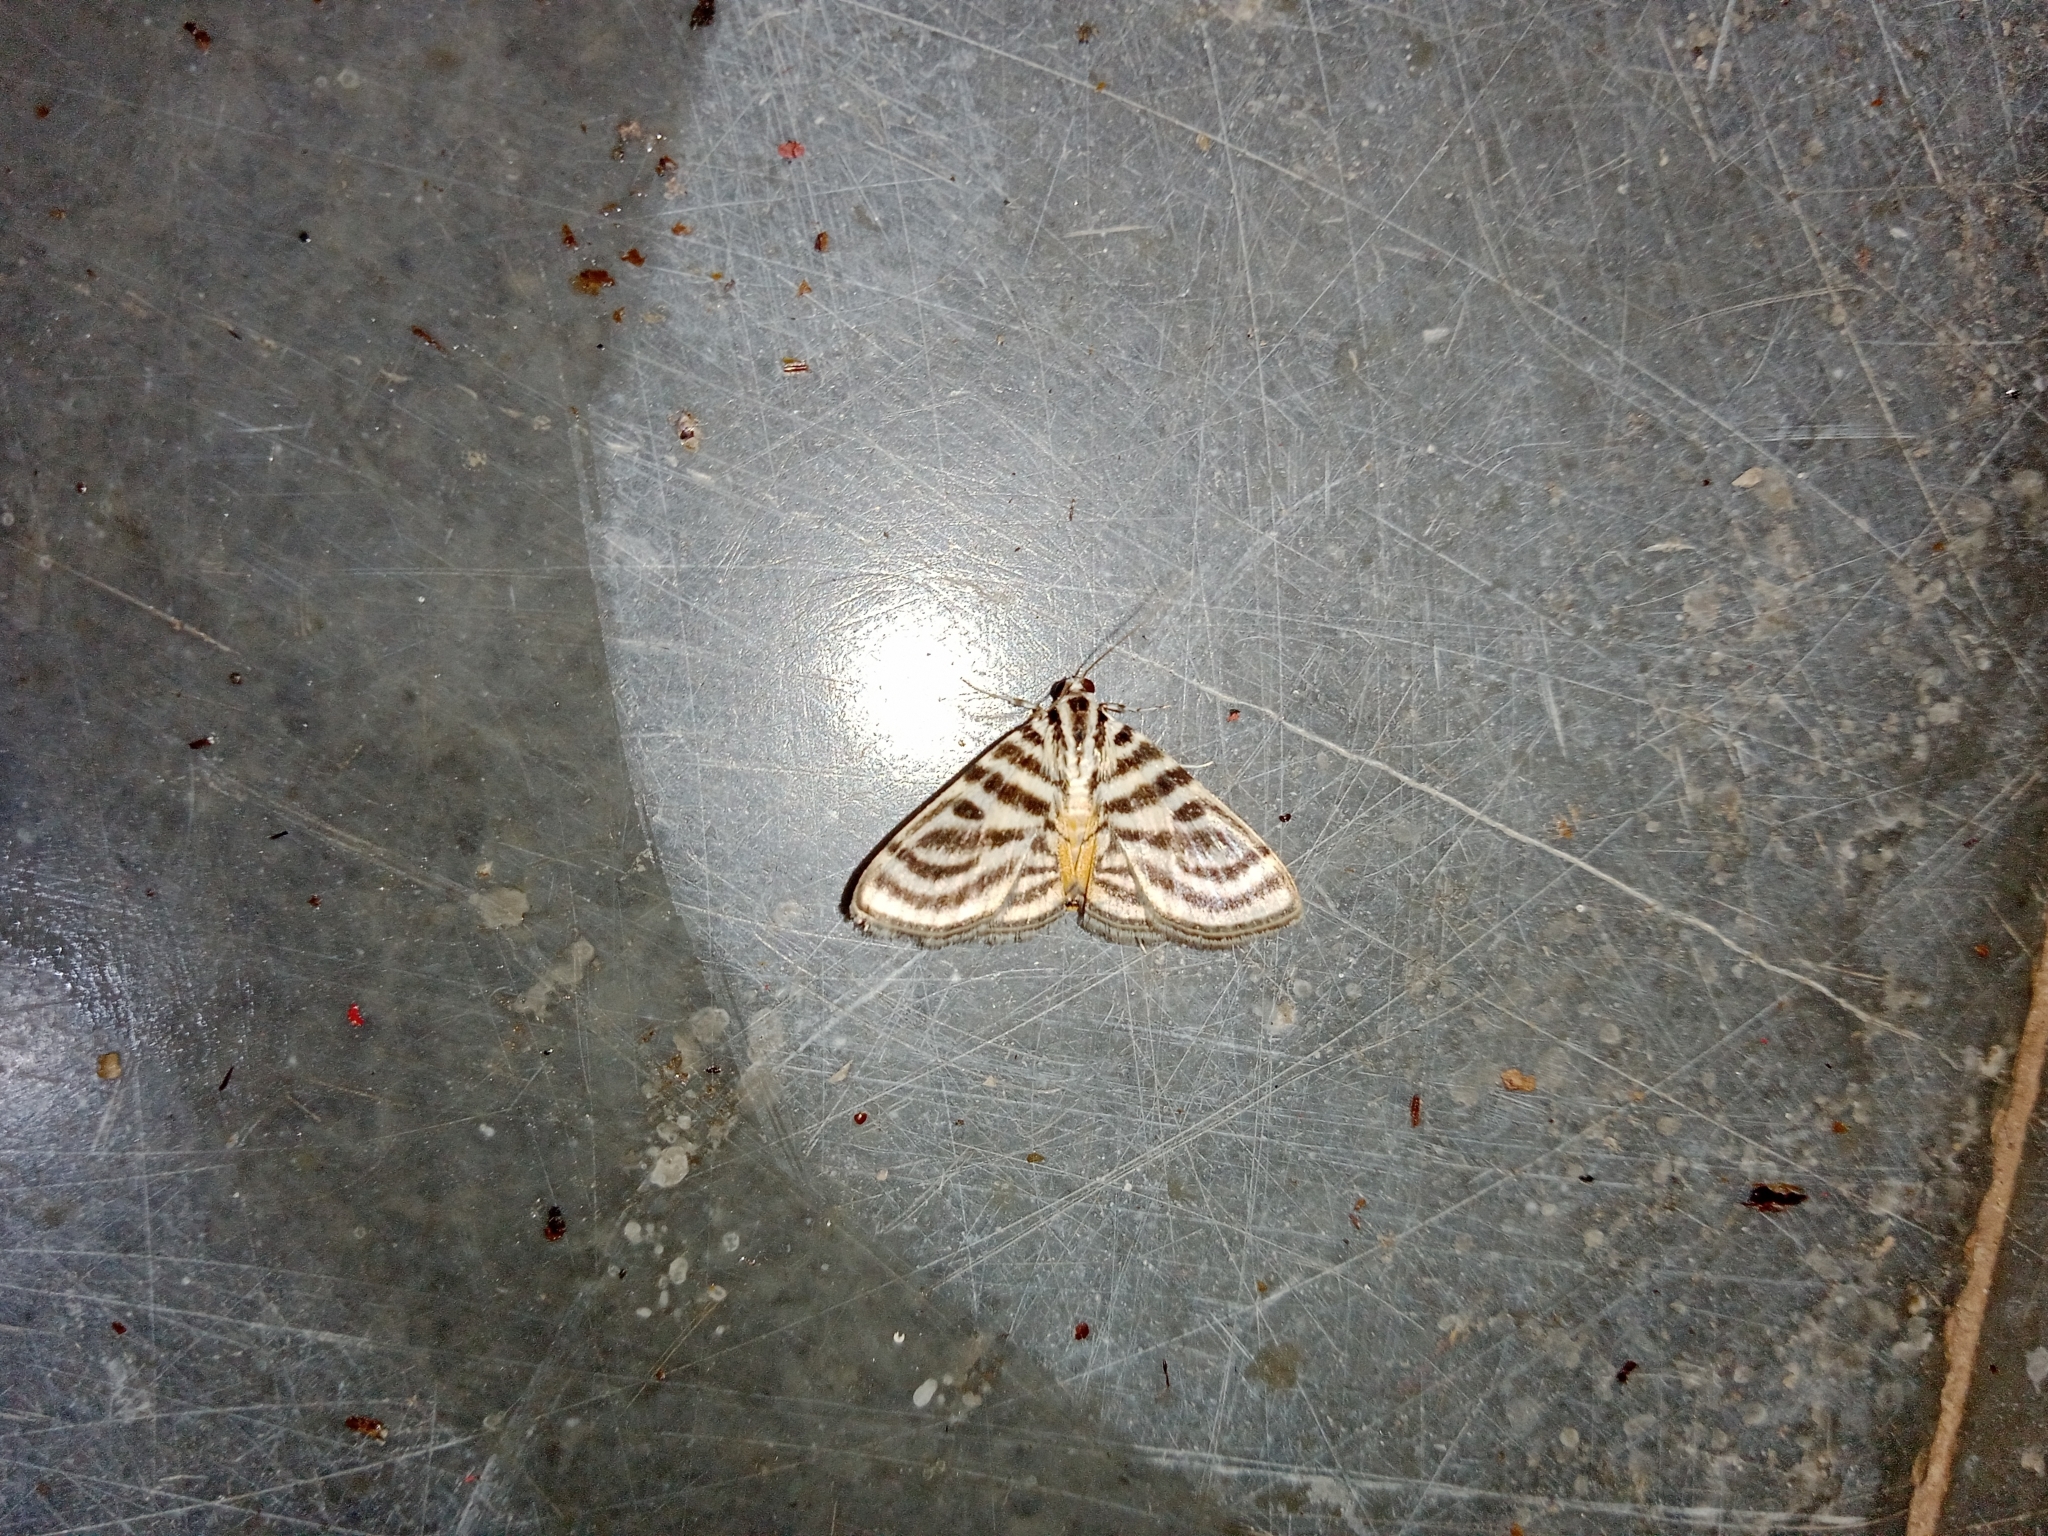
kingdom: Animalia
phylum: Arthropoda
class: Insecta
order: Lepidoptera
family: Crambidae
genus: Dichocrocis
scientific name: Dichocrocis rigidalis
